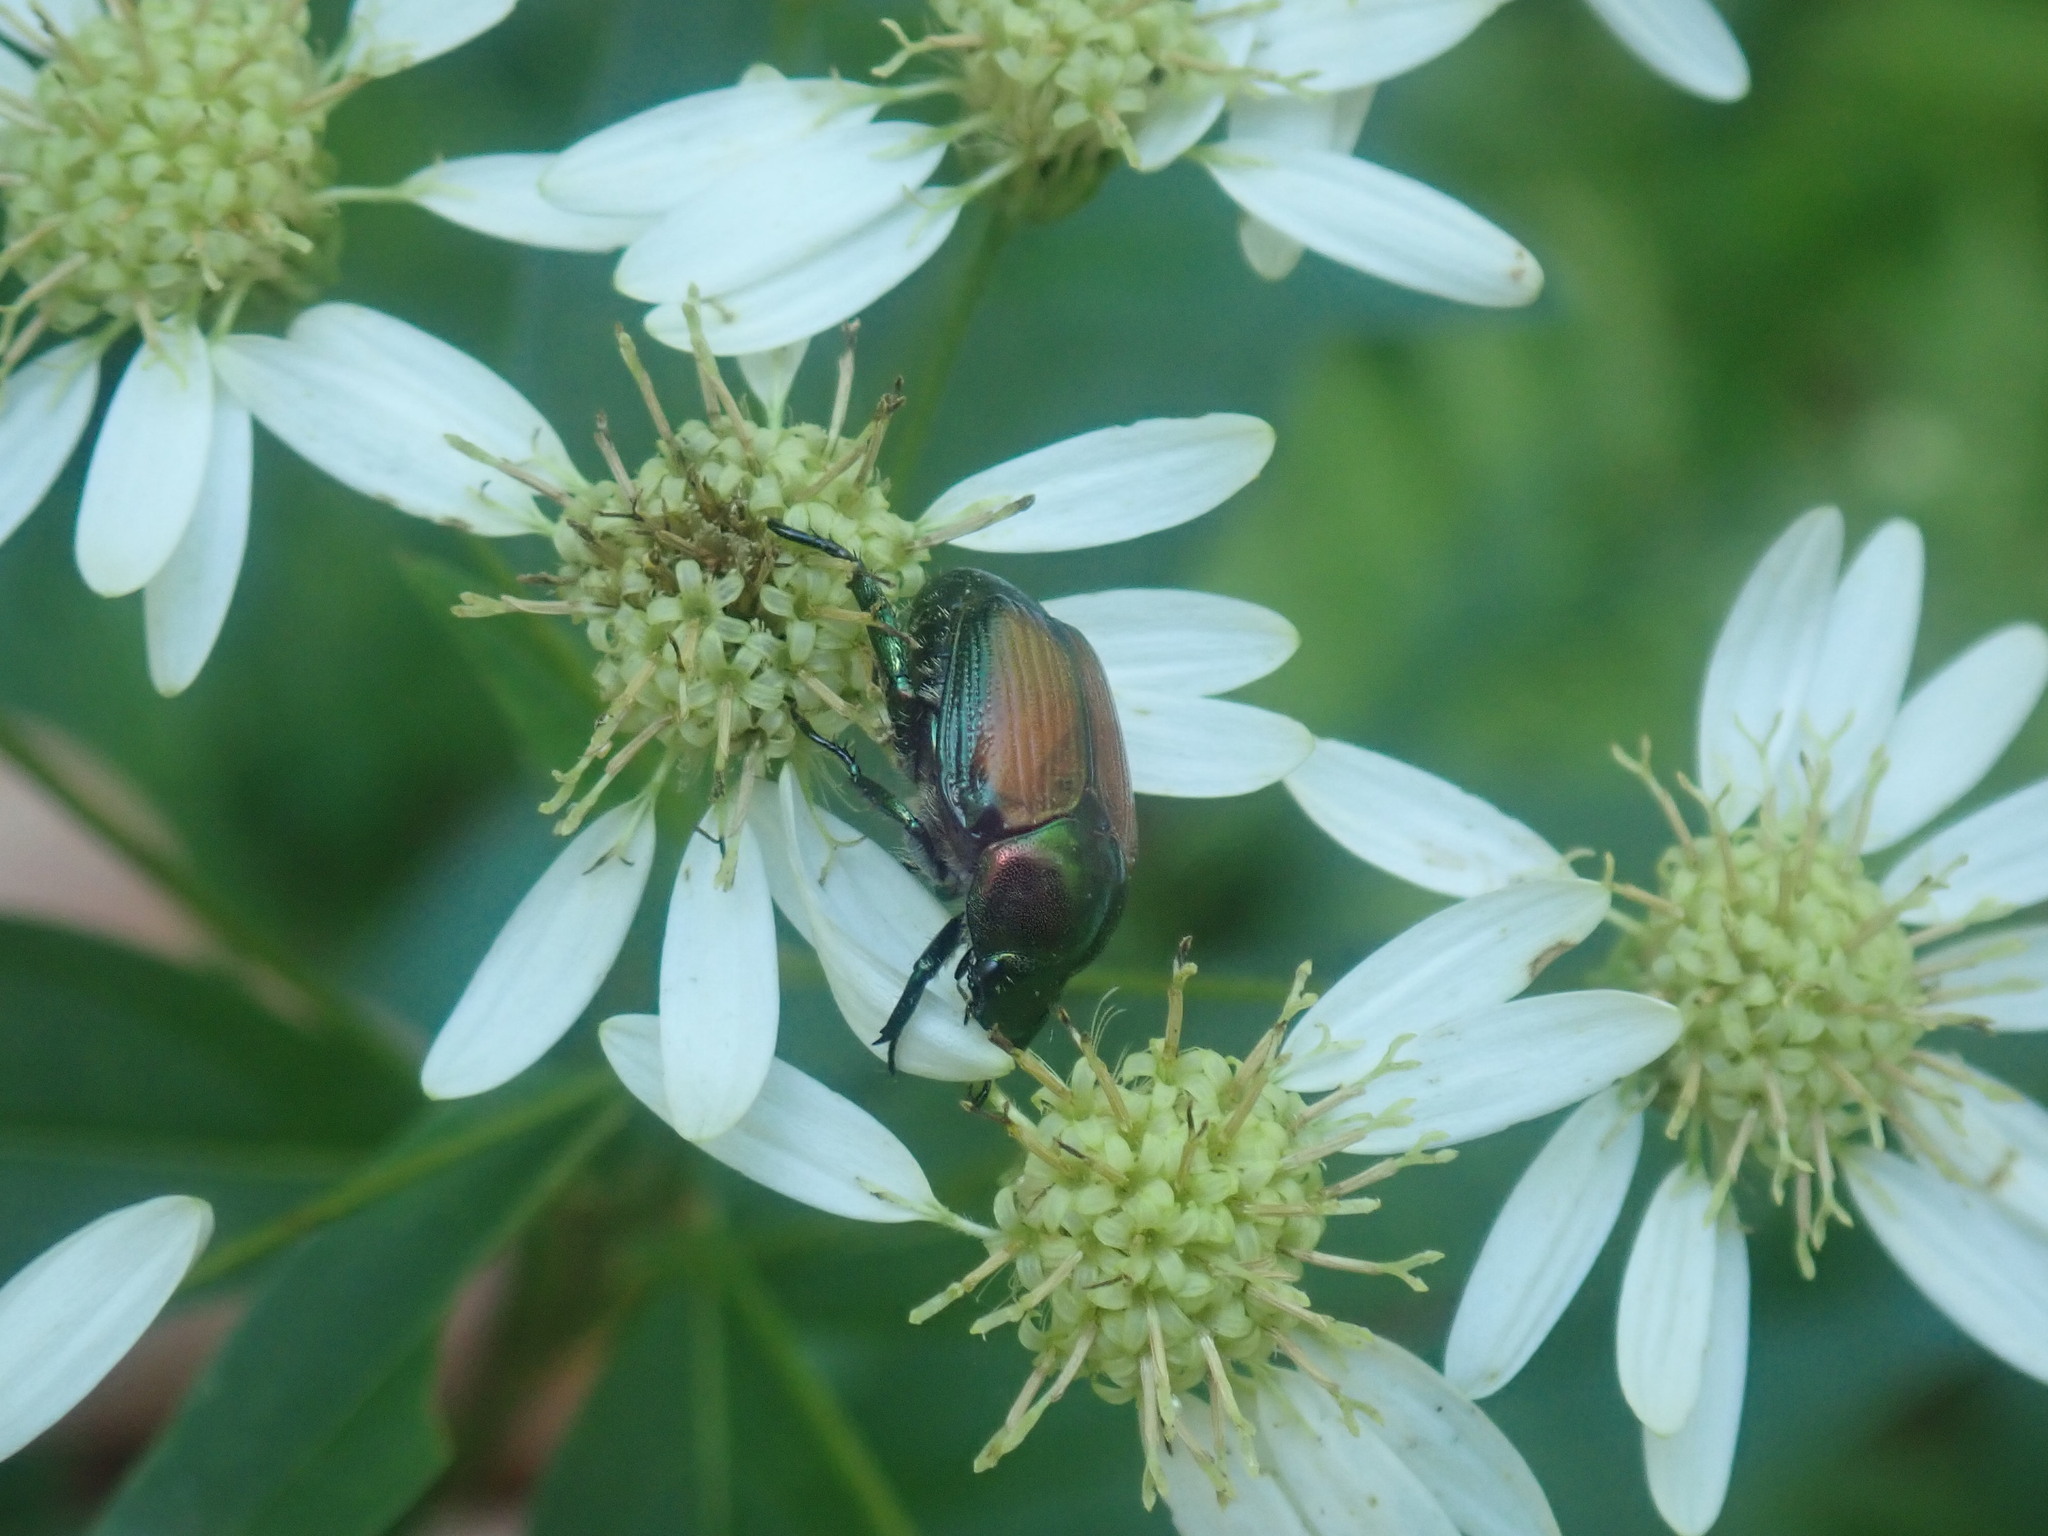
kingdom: Animalia
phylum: Arthropoda
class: Insecta
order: Coleoptera
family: Scarabaeidae
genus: Popillia
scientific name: Popillia japonica
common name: Japanese beetle
